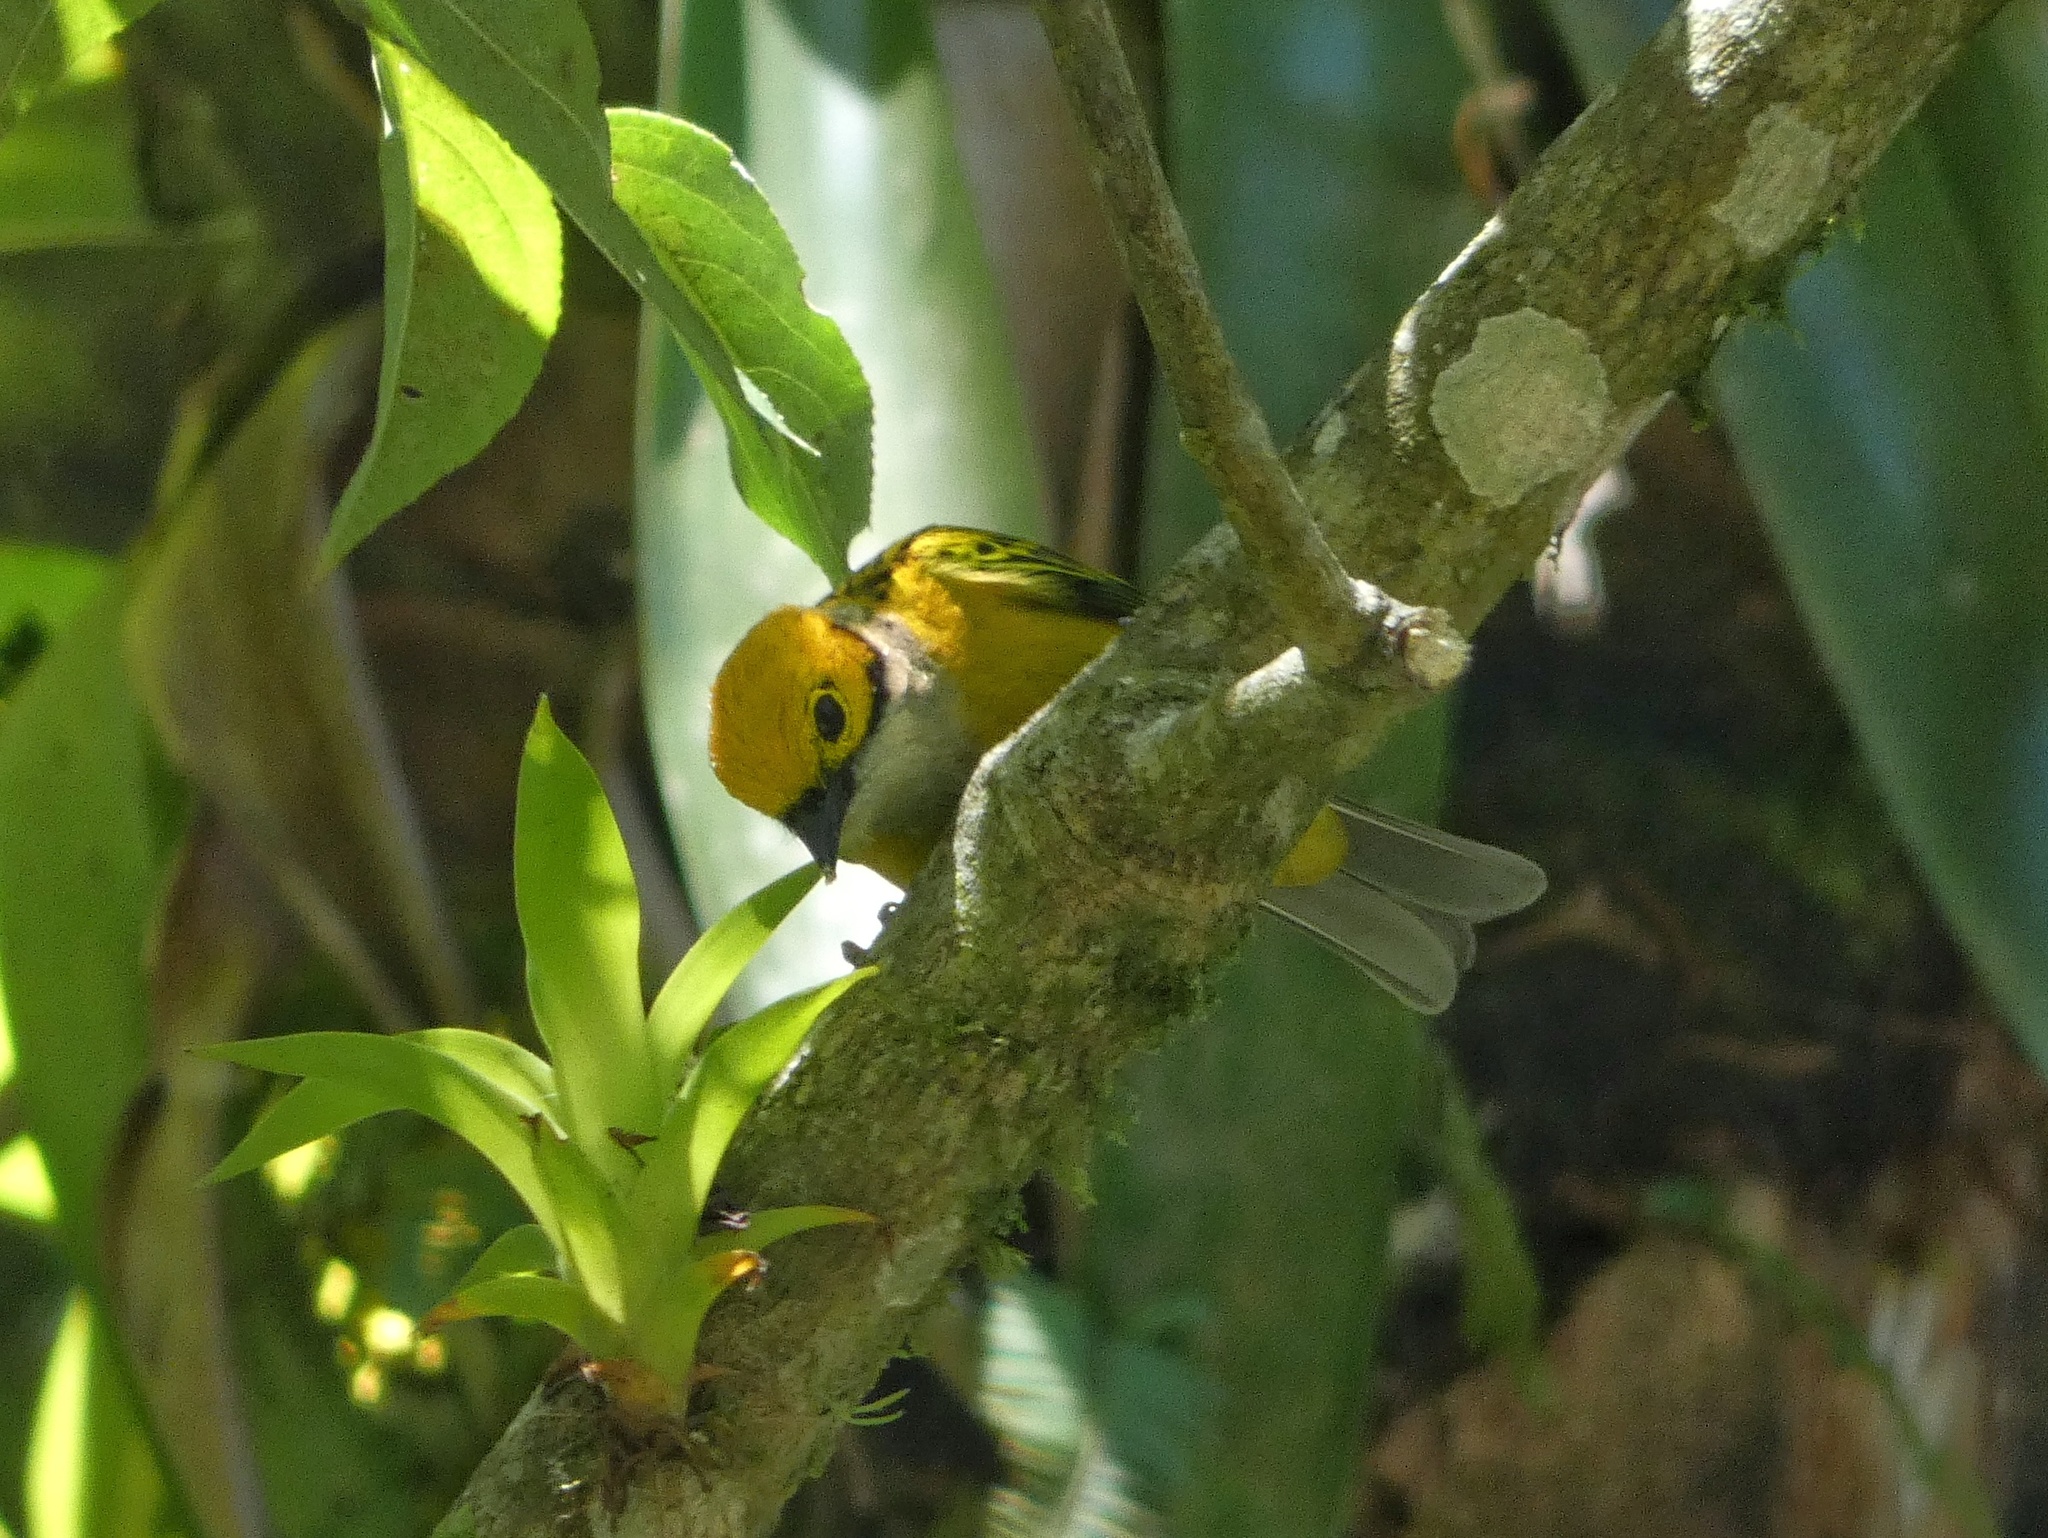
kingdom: Animalia
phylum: Chordata
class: Aves
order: Passeriformes
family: Thraupidae
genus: Tangara
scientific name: Tangara icterocephala
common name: Silver-throated tanager
